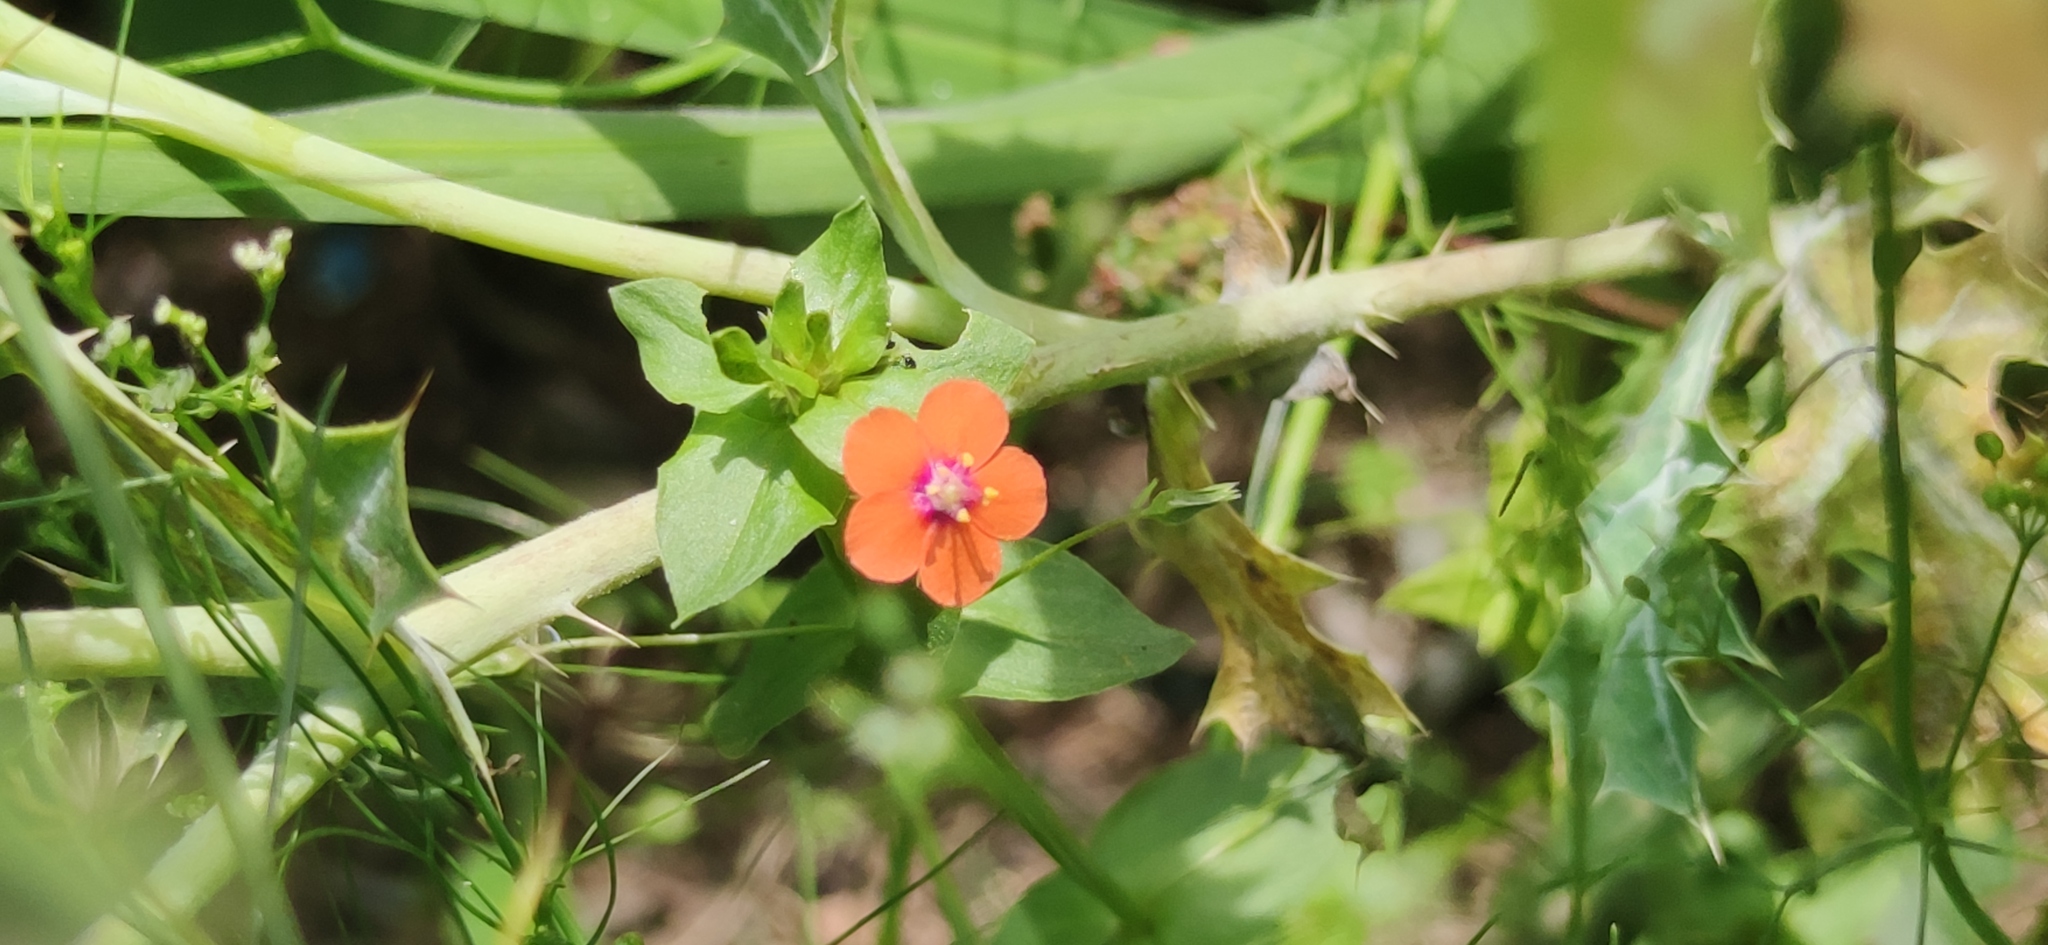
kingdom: Plantae
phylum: Tracheophyta
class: Magnoliopsida
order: Ericales
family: Primulaceae
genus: Lysimachia
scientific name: Lysimachia arvensis
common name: Scarlet pimpernel
